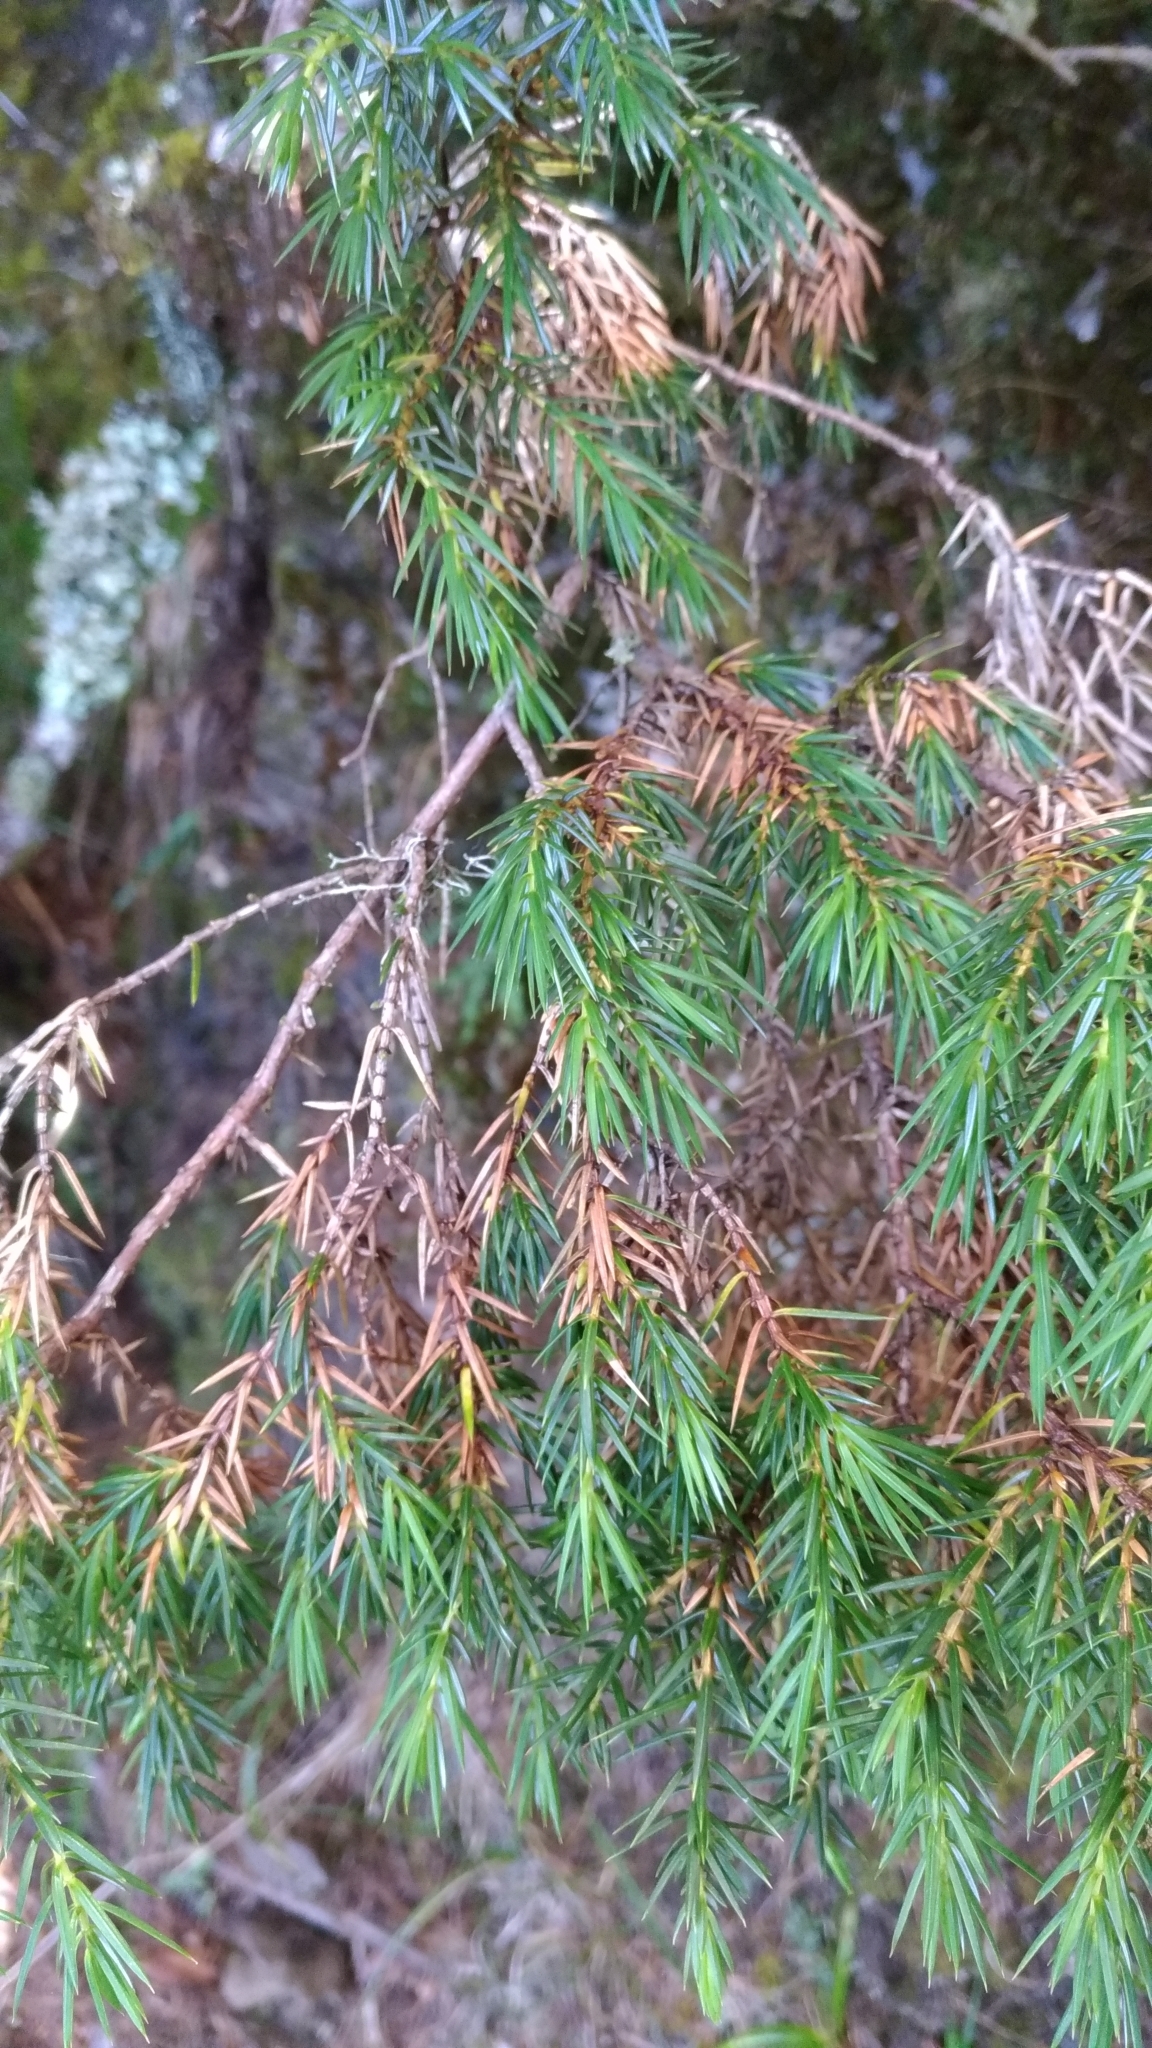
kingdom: Plantae
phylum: Tracheophyta
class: Pinopsida
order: Pinales
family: Cupressaceae
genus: Juniperus
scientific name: Juniperus formosana
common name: Formosan juniper
